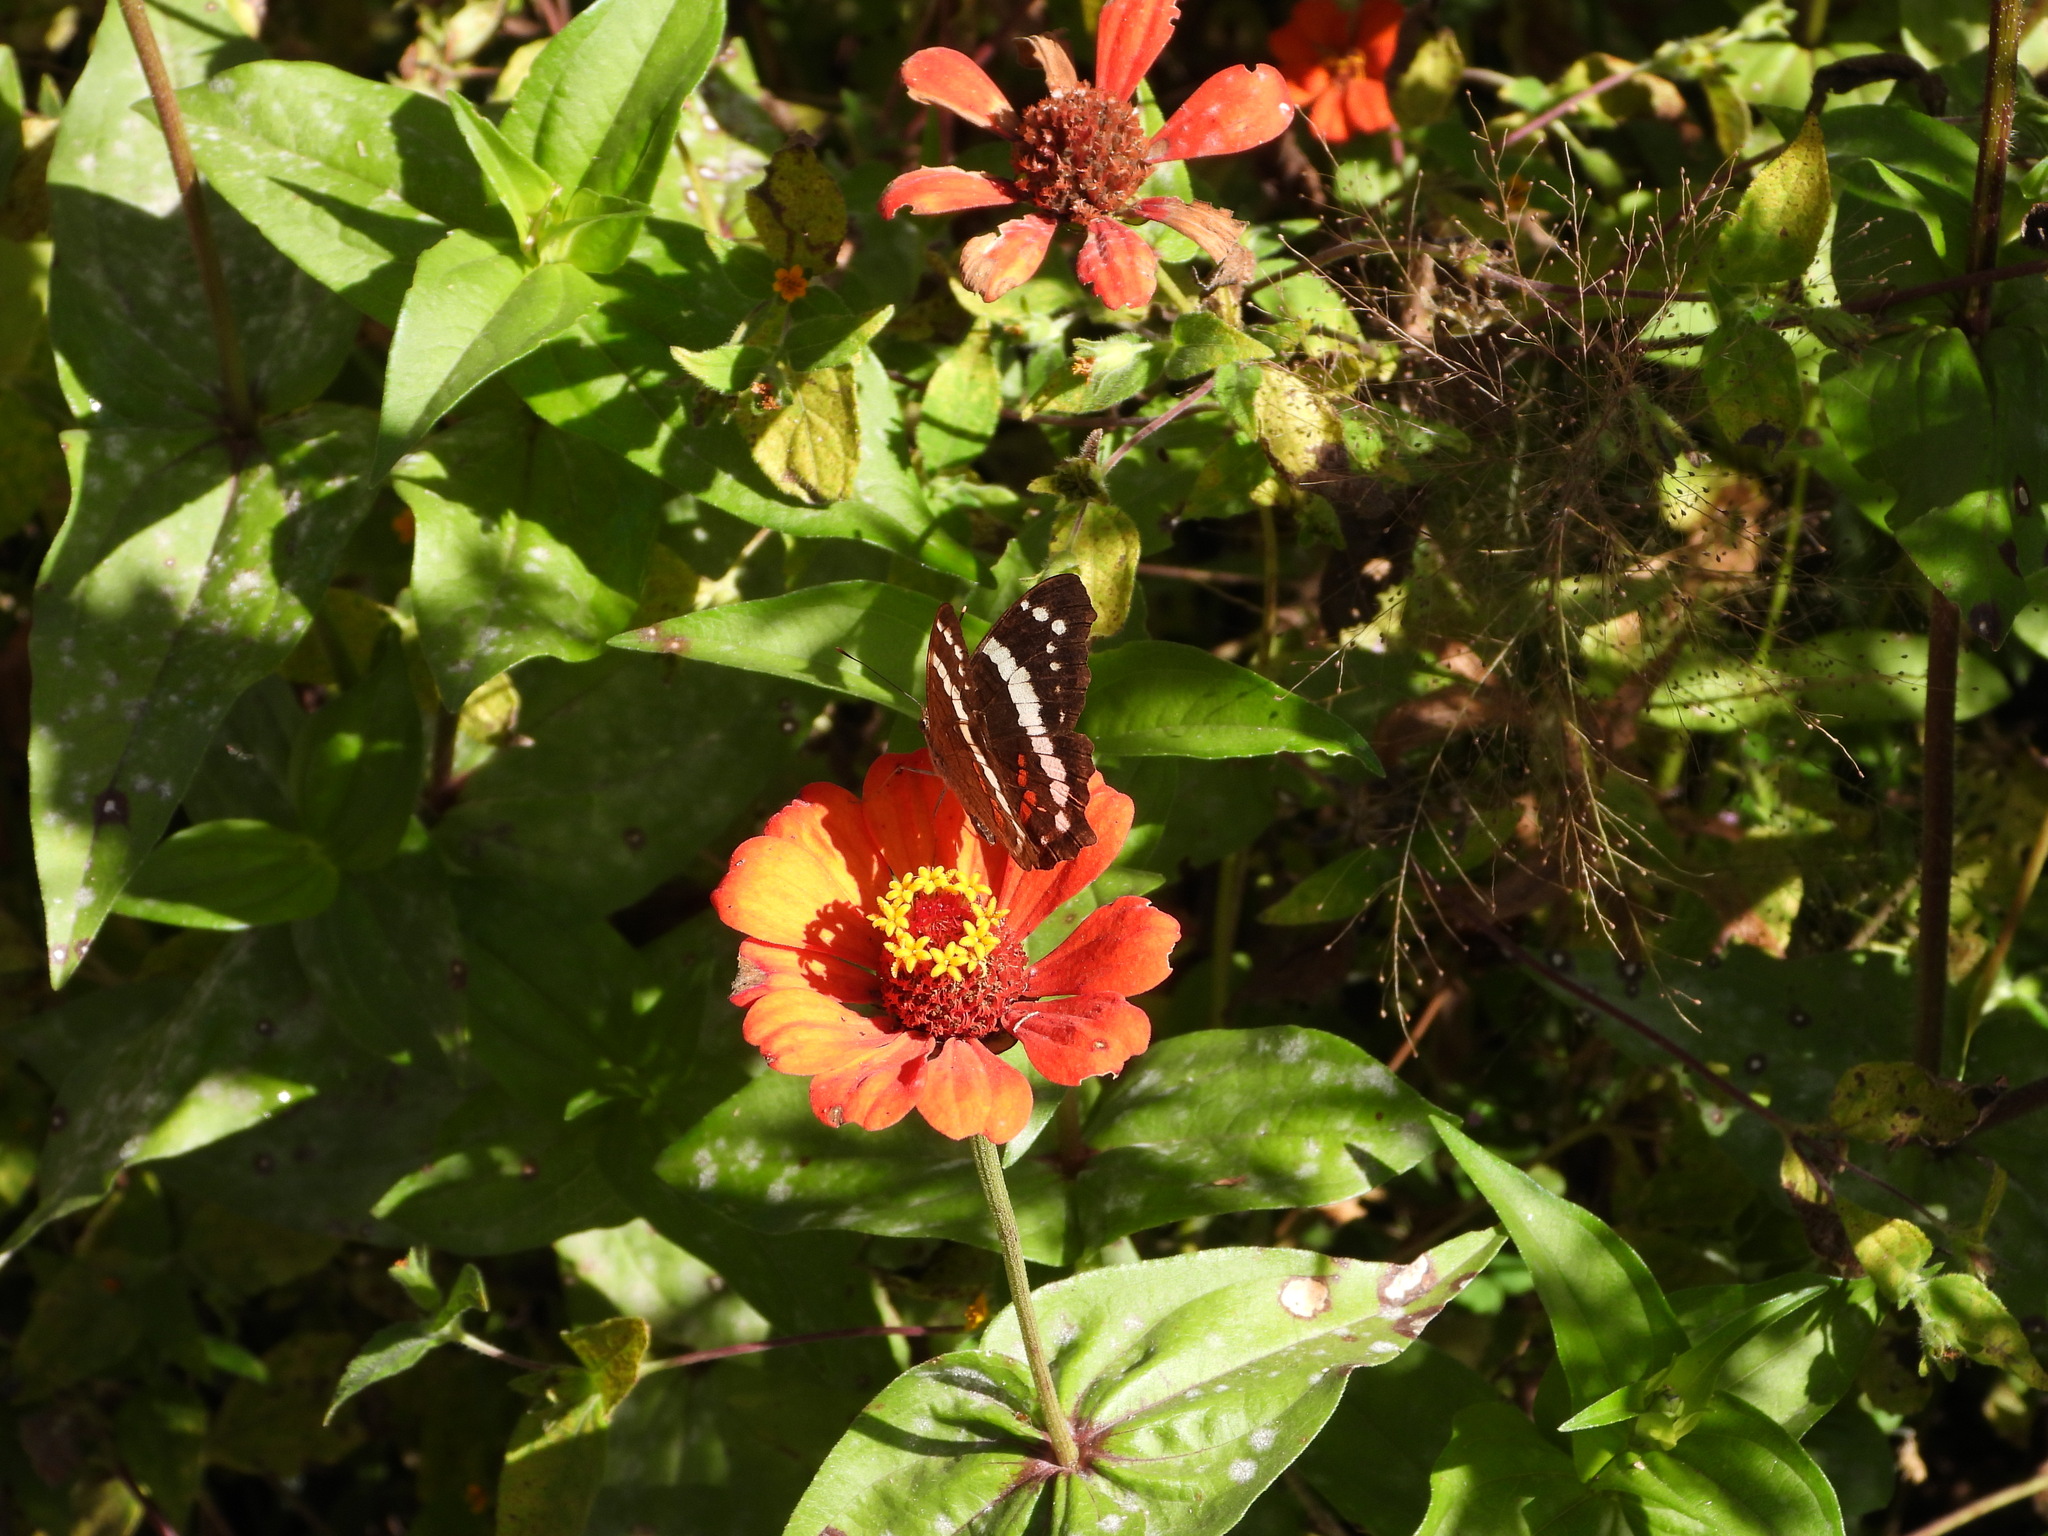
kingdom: Animalia
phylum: Arthropoda
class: Insecta
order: Lepidoptera
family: Nymphalidae
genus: Anartia
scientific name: Anartia fatima
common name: Banded peacock
